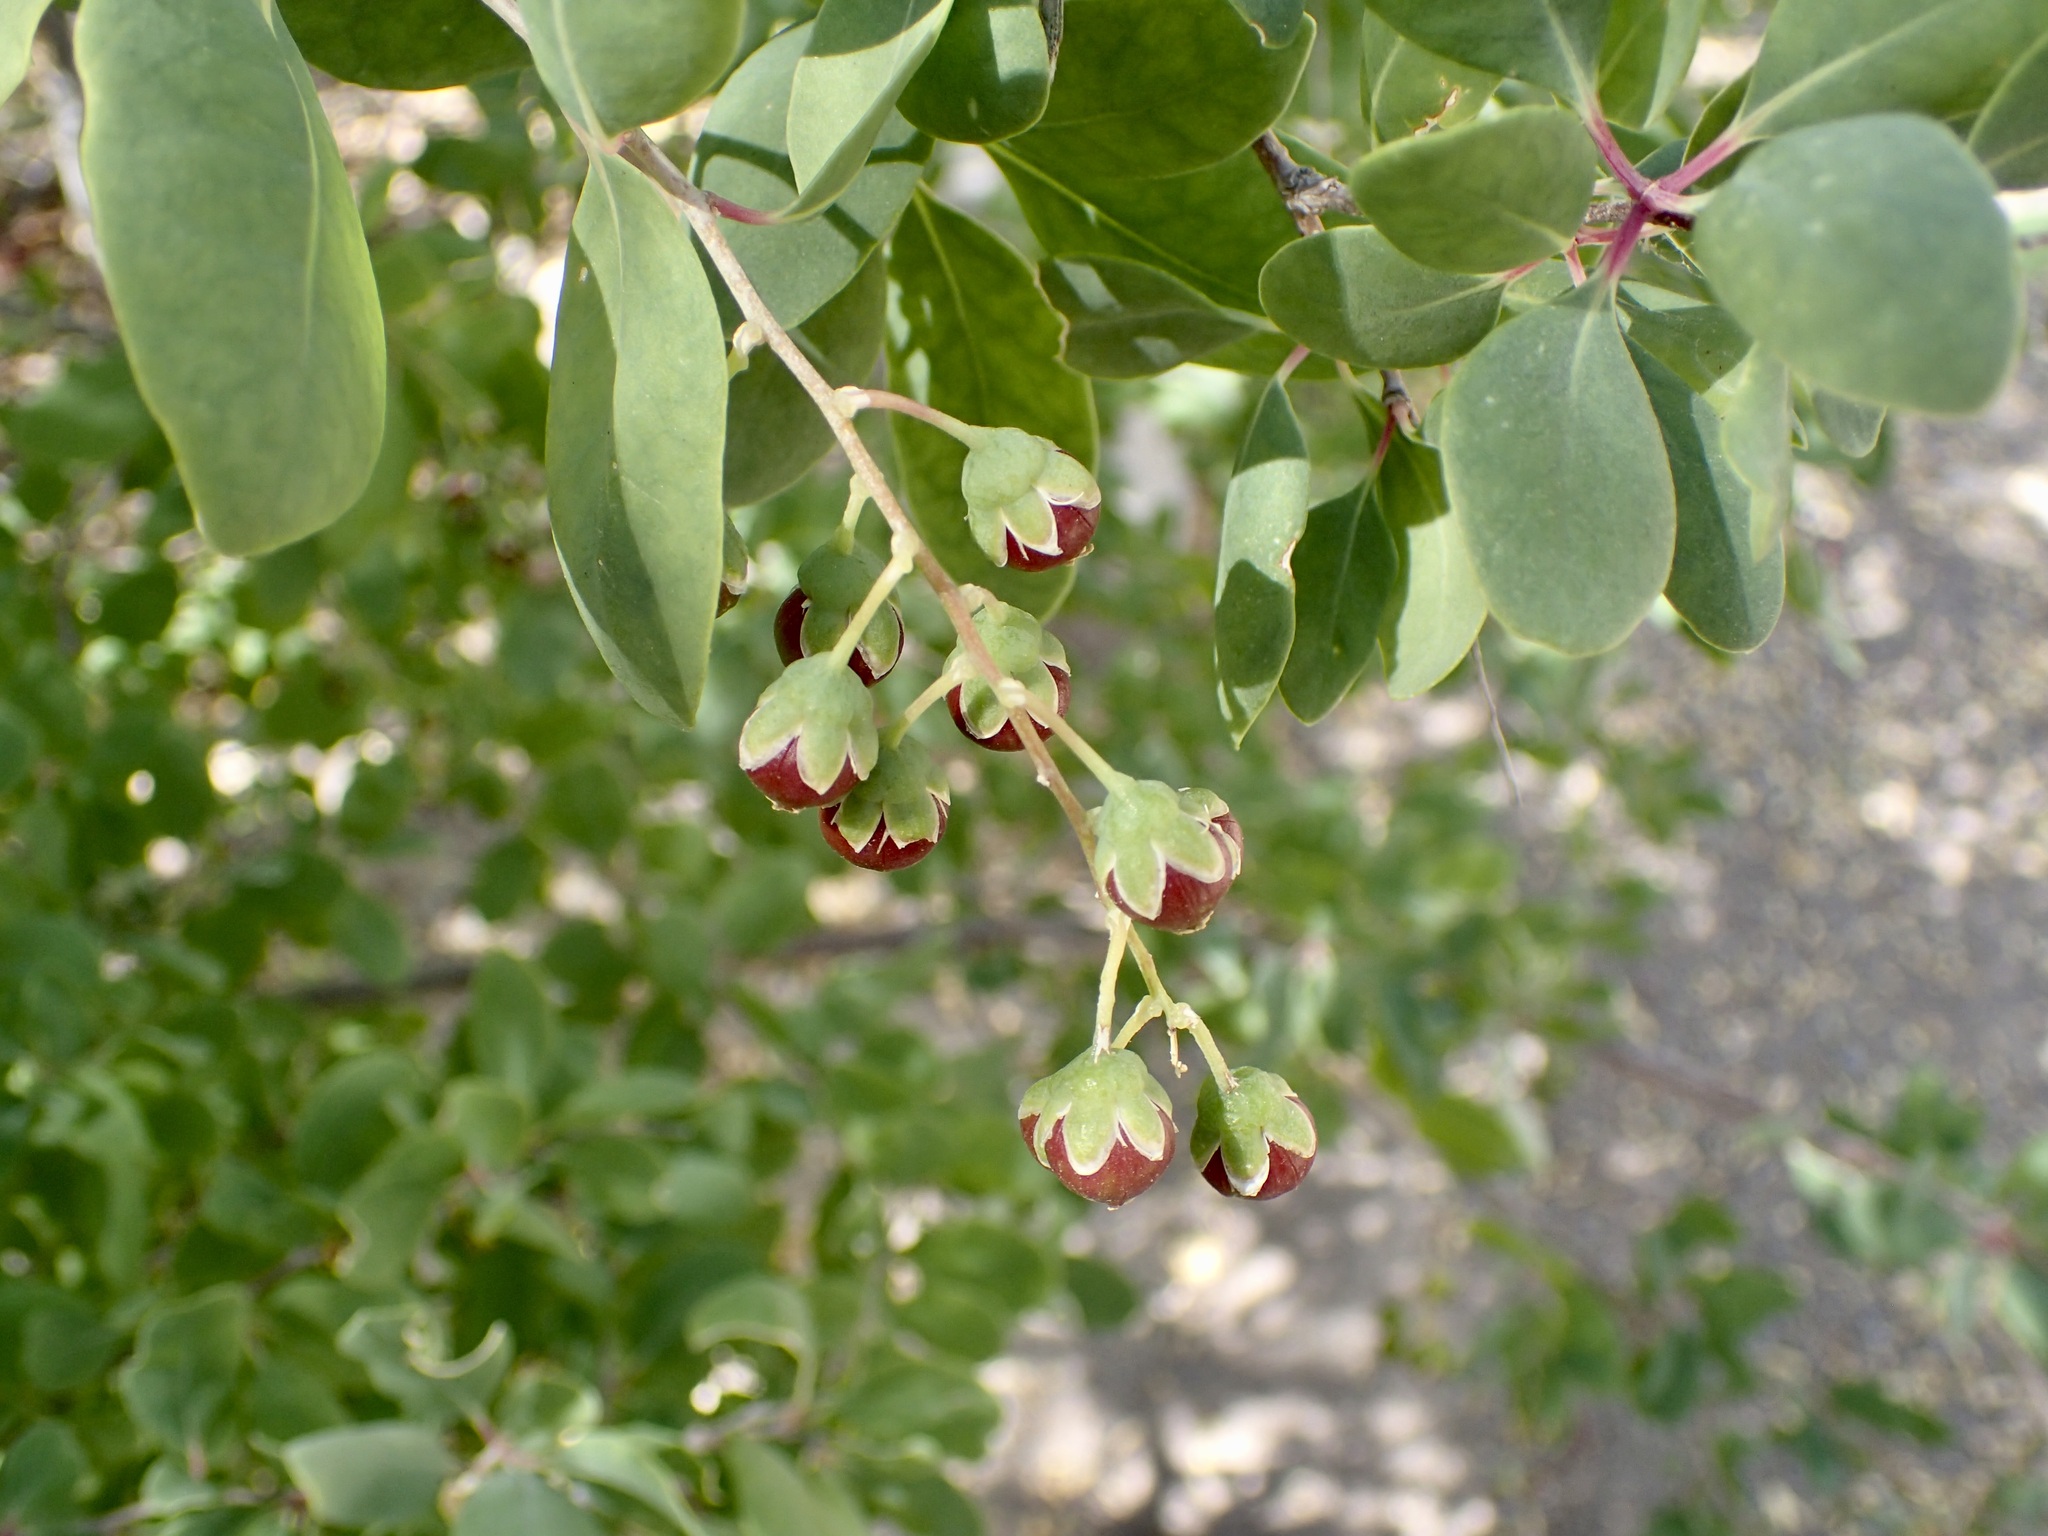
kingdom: Plantae
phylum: Tracheophyta
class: Magnoliopsida
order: Caryophyllales
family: Stegnospermataceae
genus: Stegnosperma
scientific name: Stegnosperma halimifolium
